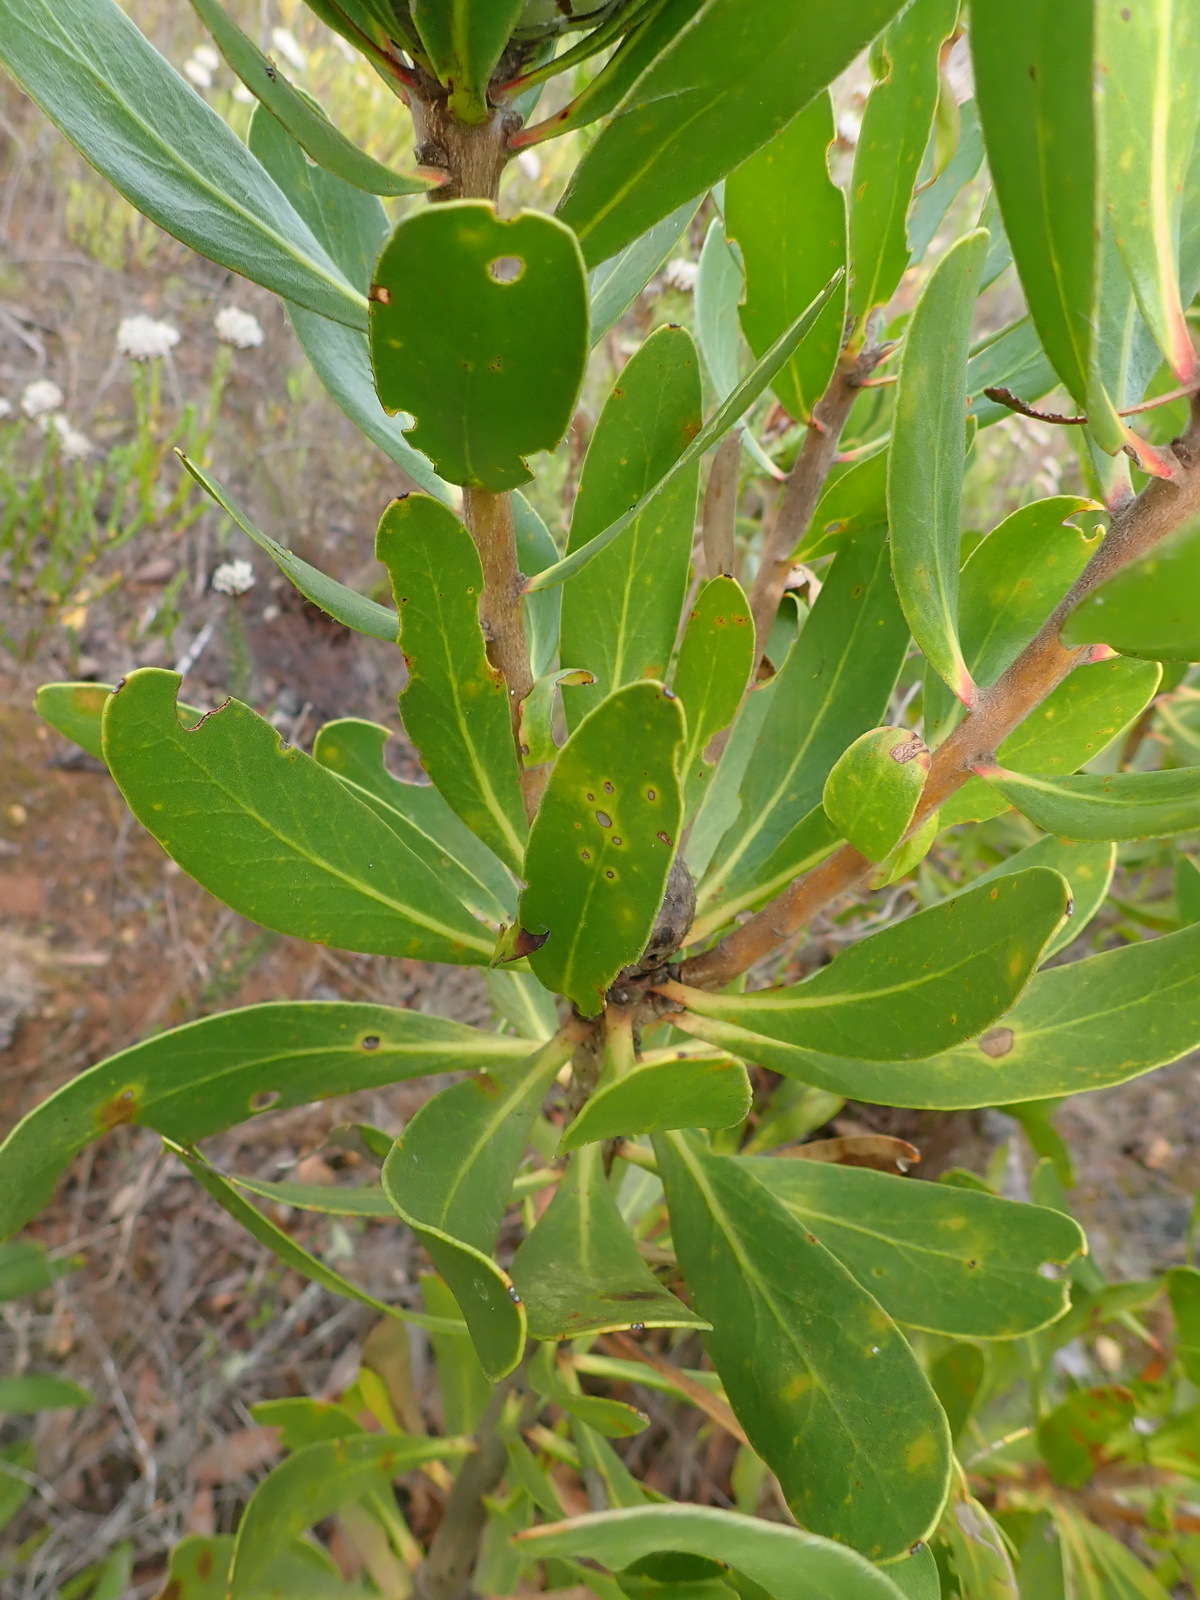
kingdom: Plantae
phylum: Tracheophyta
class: Magnoliopsida
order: Proteales
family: Proteaceae
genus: Protea
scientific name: Protea obtusifolia
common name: Bredasdorp sugarbush
